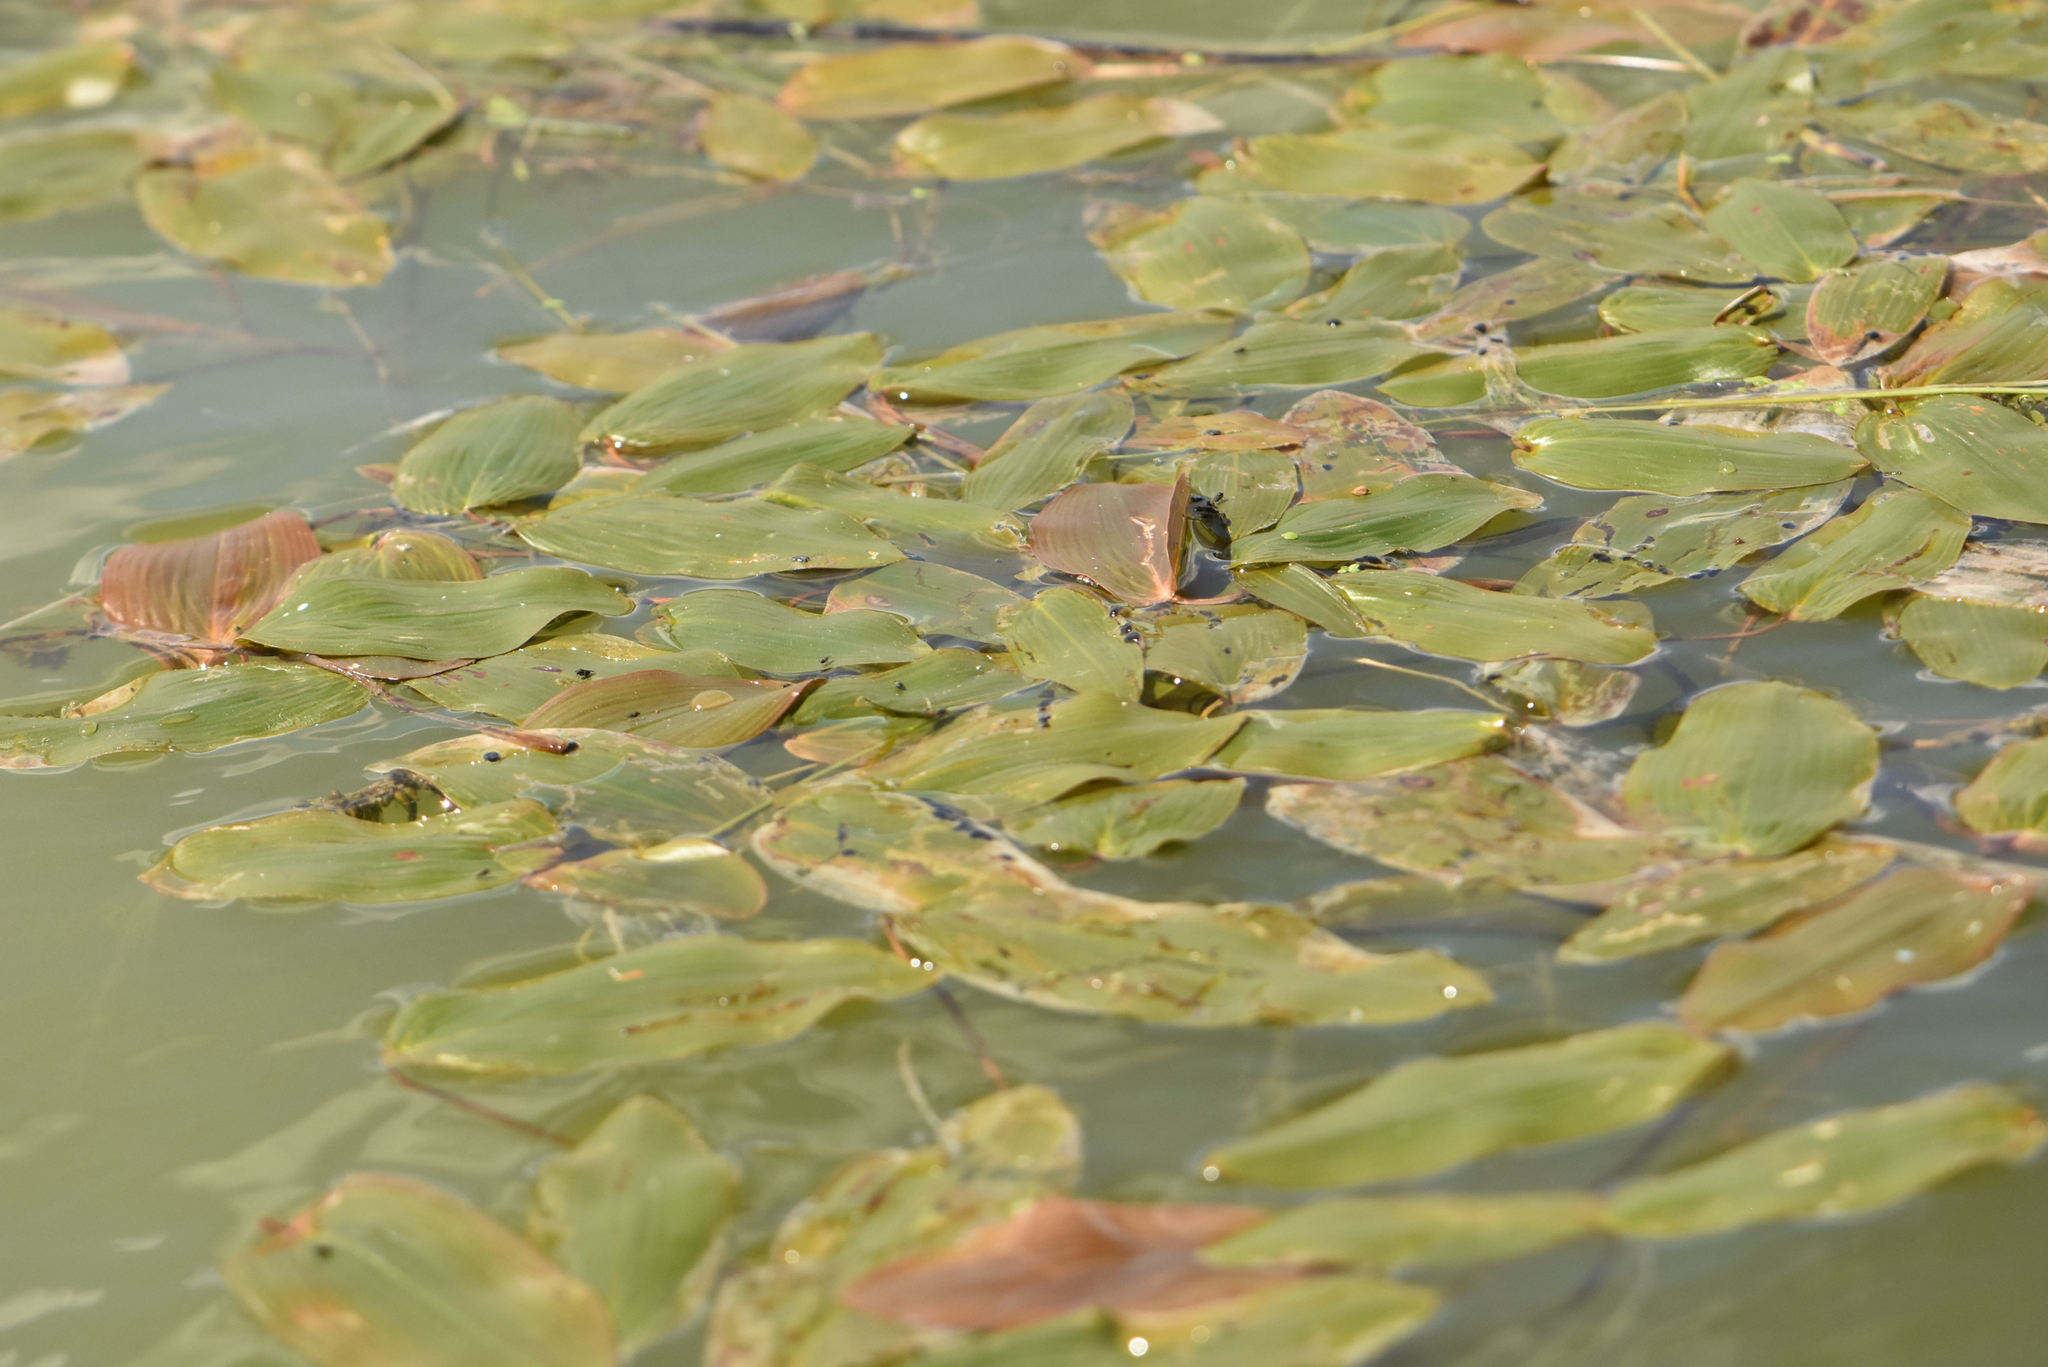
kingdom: Plantae
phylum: Tracheophyta
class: Liliopsida
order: Alismatales
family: Potamogetonaceae
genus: Potamogeton
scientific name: Potamogeton natans
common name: Broad-leaved pondweed
